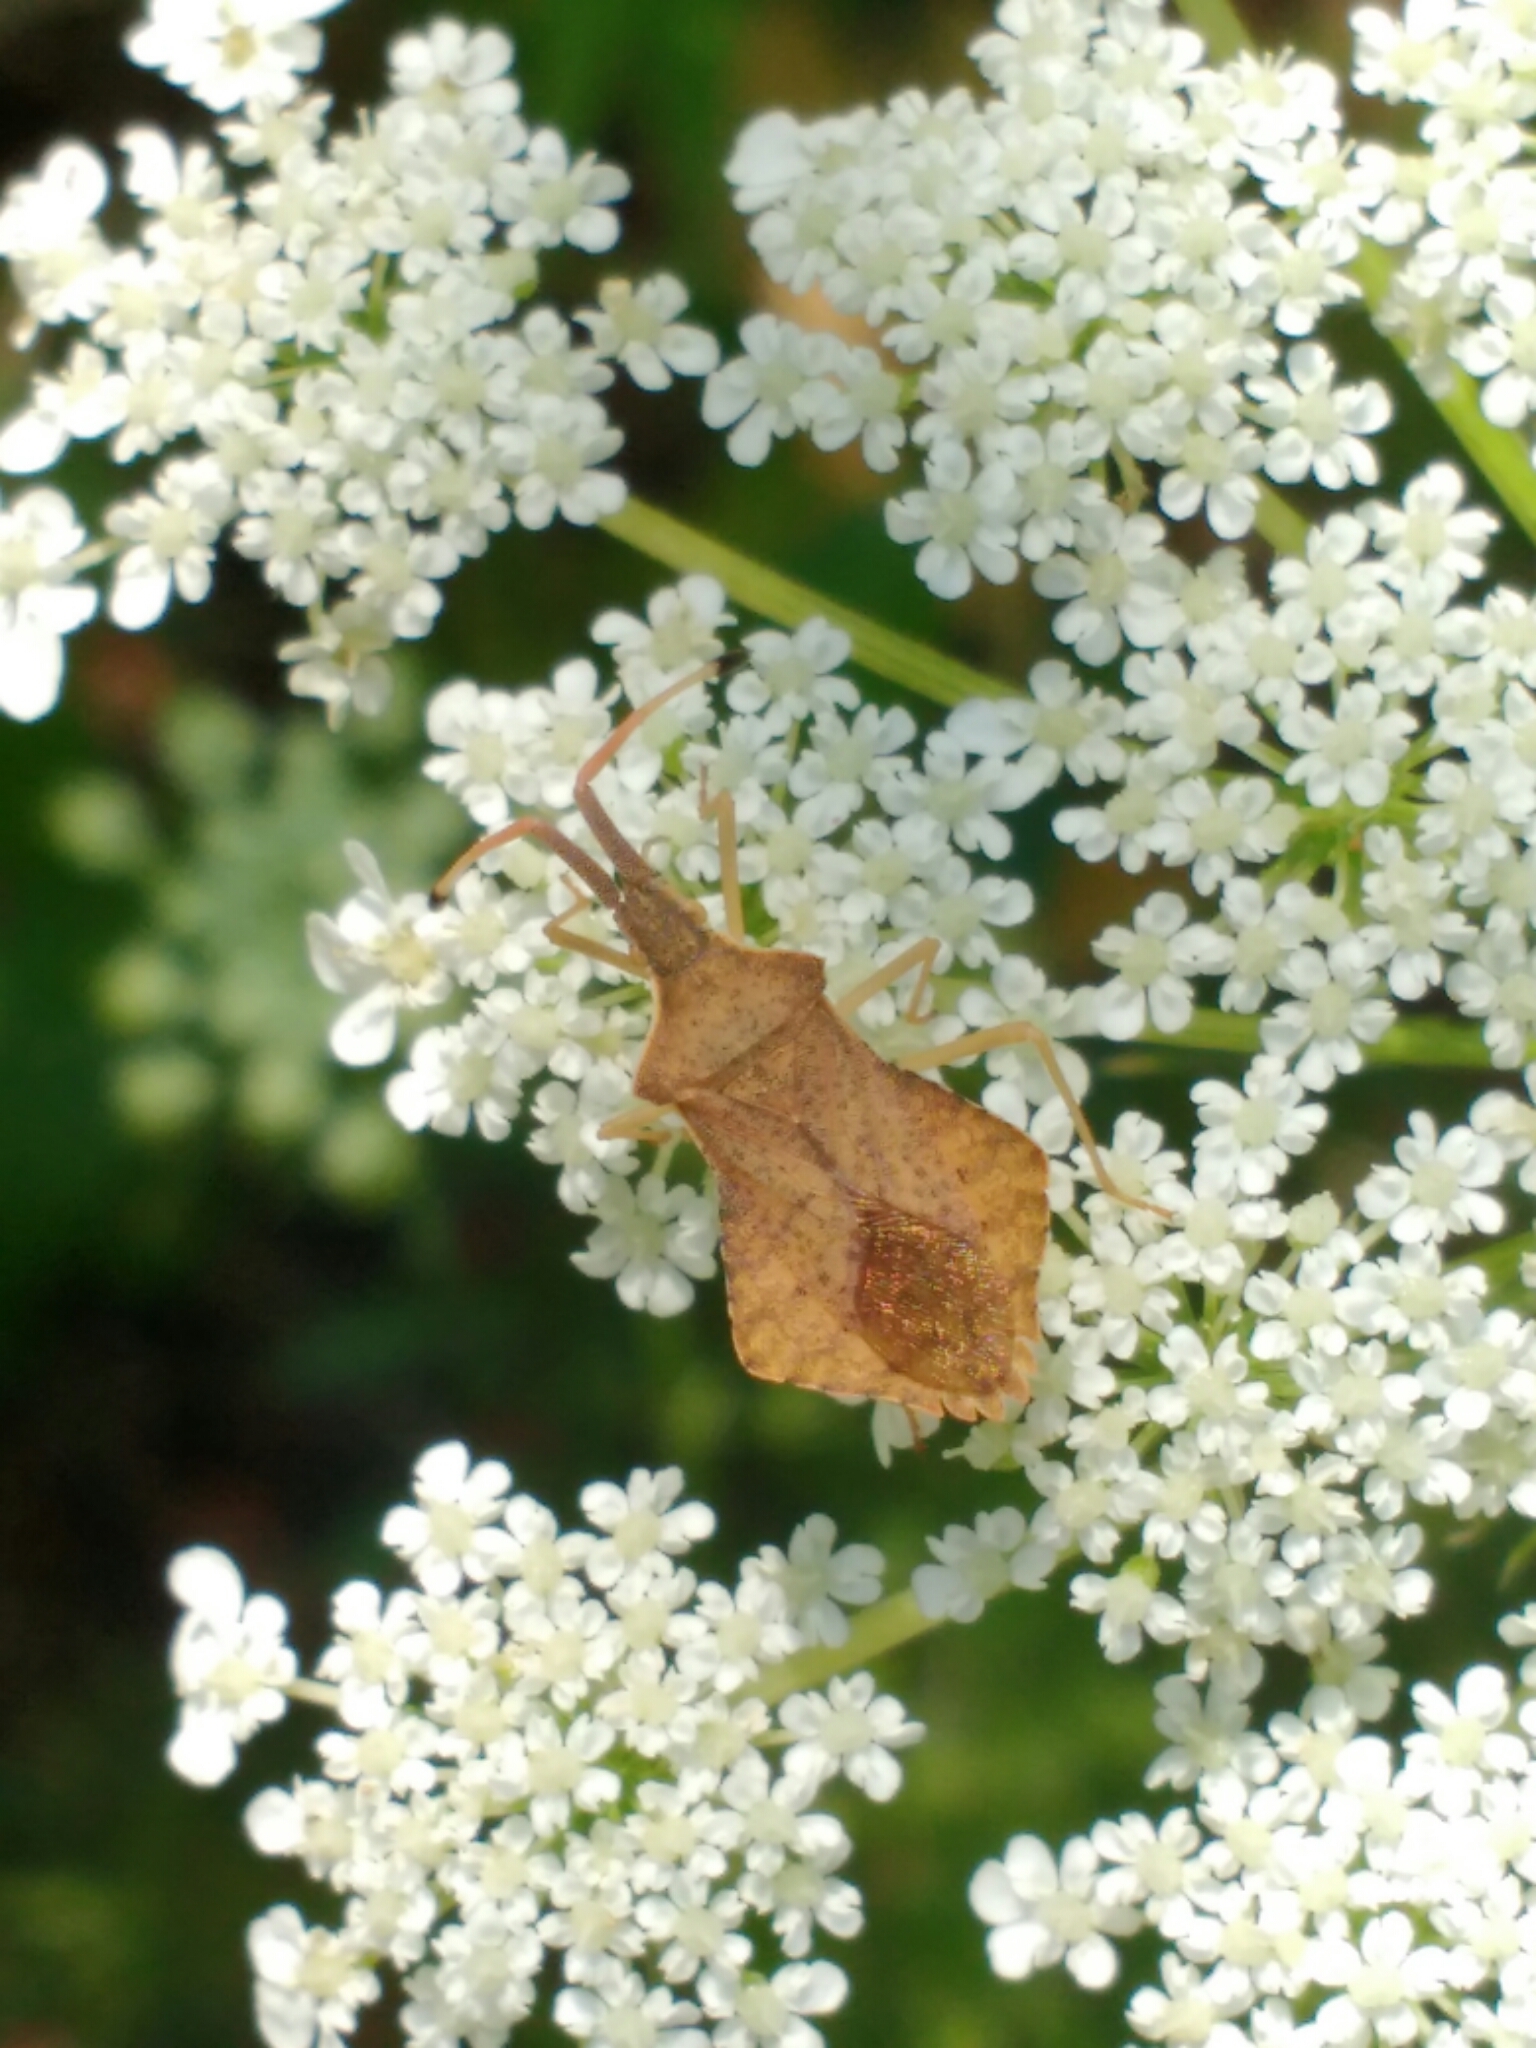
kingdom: Animalia
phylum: Arthropoda
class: Insecta
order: Hemiptera
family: Coreidae
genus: Syromastus
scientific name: Syromastus rhombeus
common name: Rhombic leatherbug
